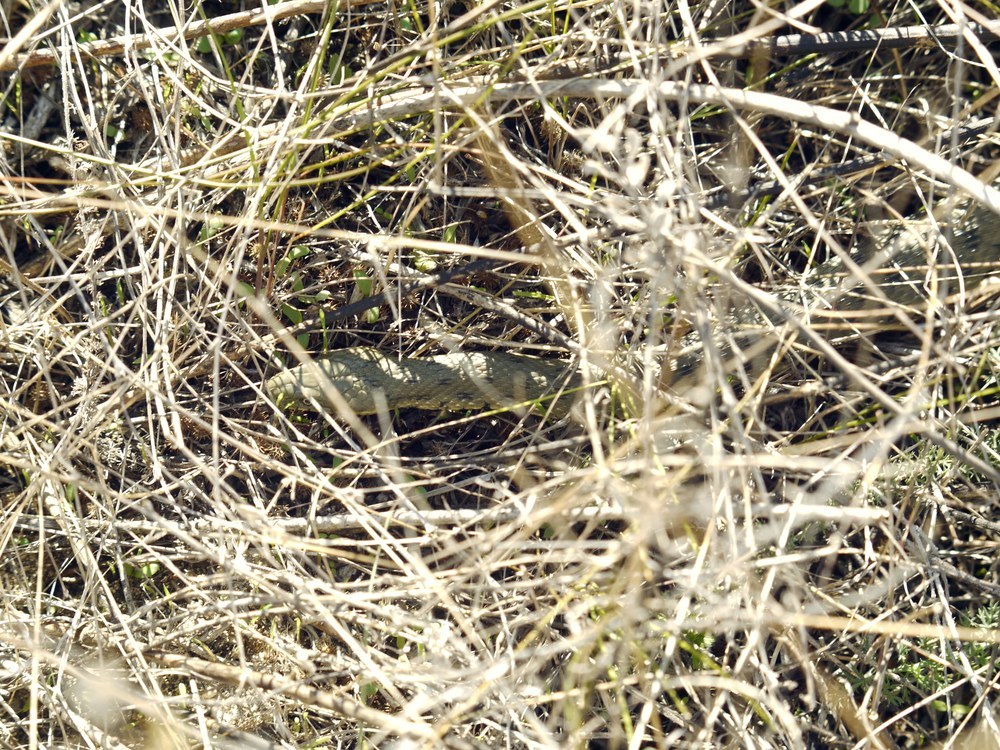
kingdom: Animalia
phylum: Chordata
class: Squamata
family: Colubridae
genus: Natrix
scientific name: Natrix tessellata
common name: Dice snake
